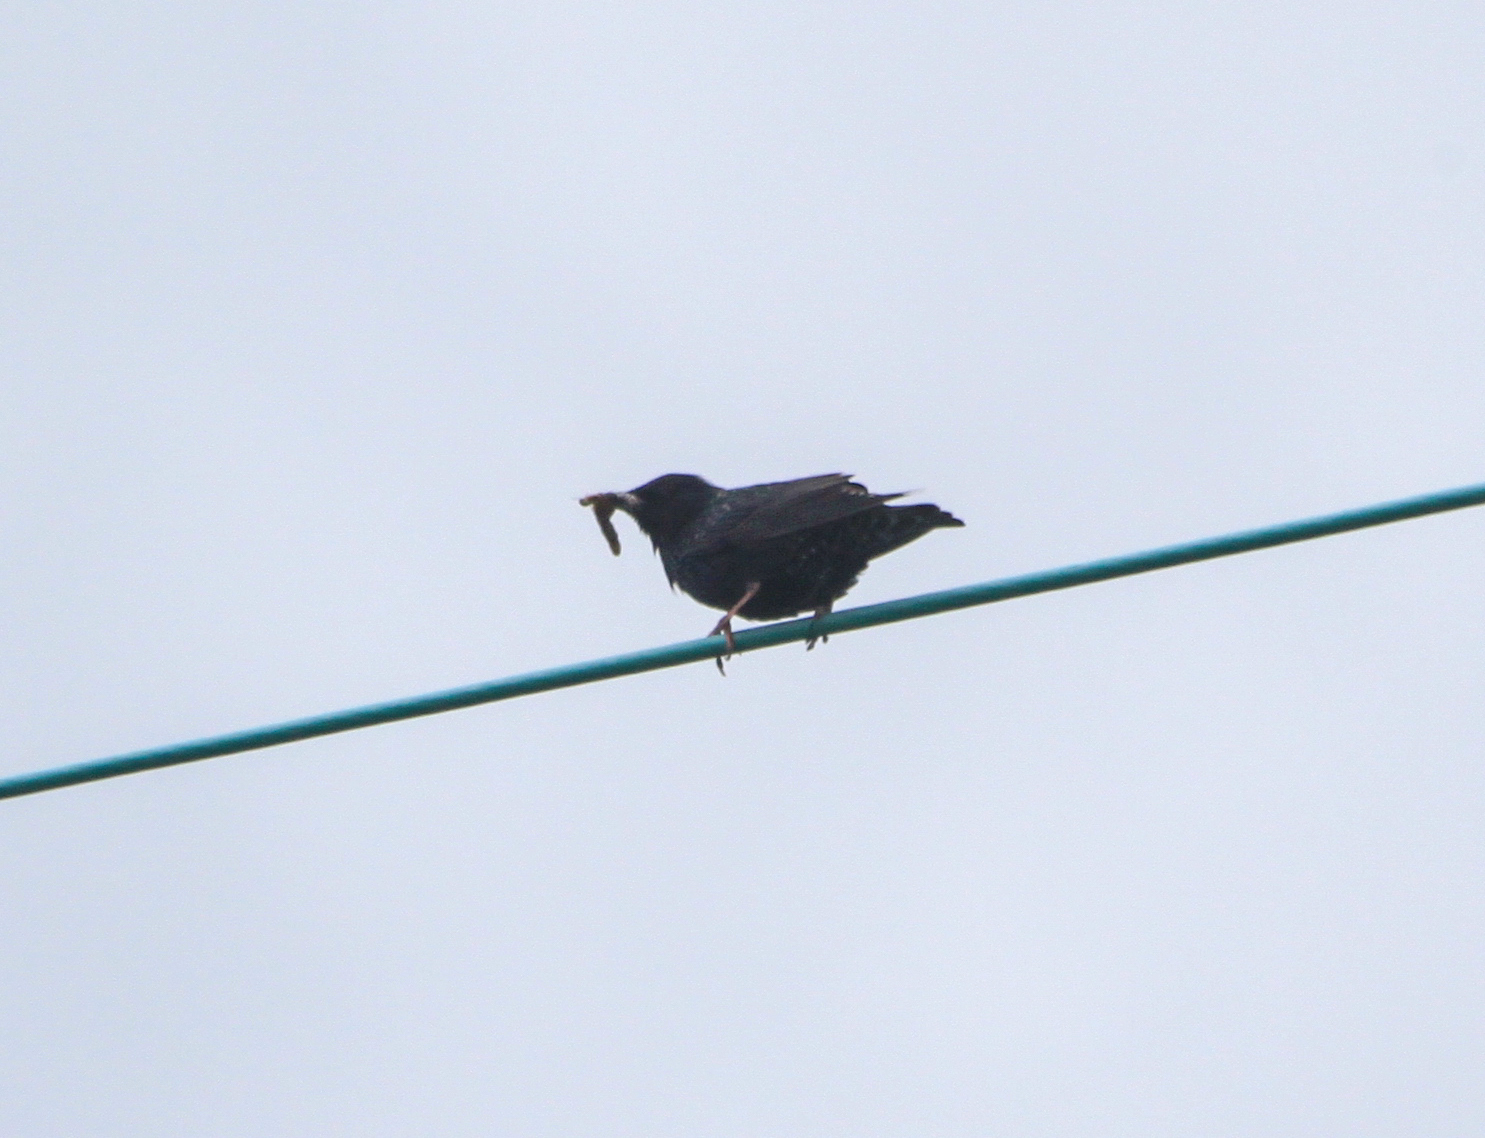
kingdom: Animalia
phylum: Chordata
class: Aves
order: Passeriformes
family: Sturnidae
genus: Sturnus
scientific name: Sturnus vulgaris
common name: Common starling
